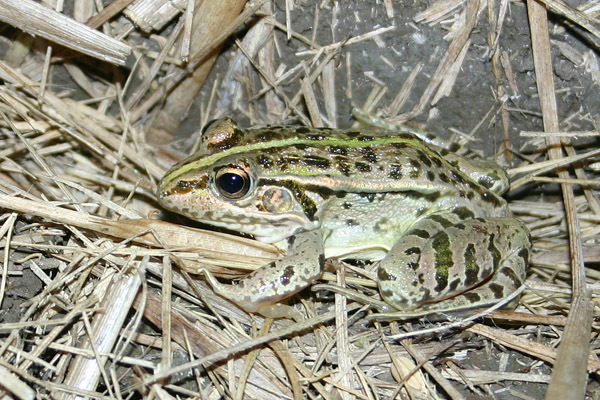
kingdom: Animalia
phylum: Chordata
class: Amphibia
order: Anura
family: Ranidae
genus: Pelophylax
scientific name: Pelophylax nigromaculatus
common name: Black-spotted pond frog
